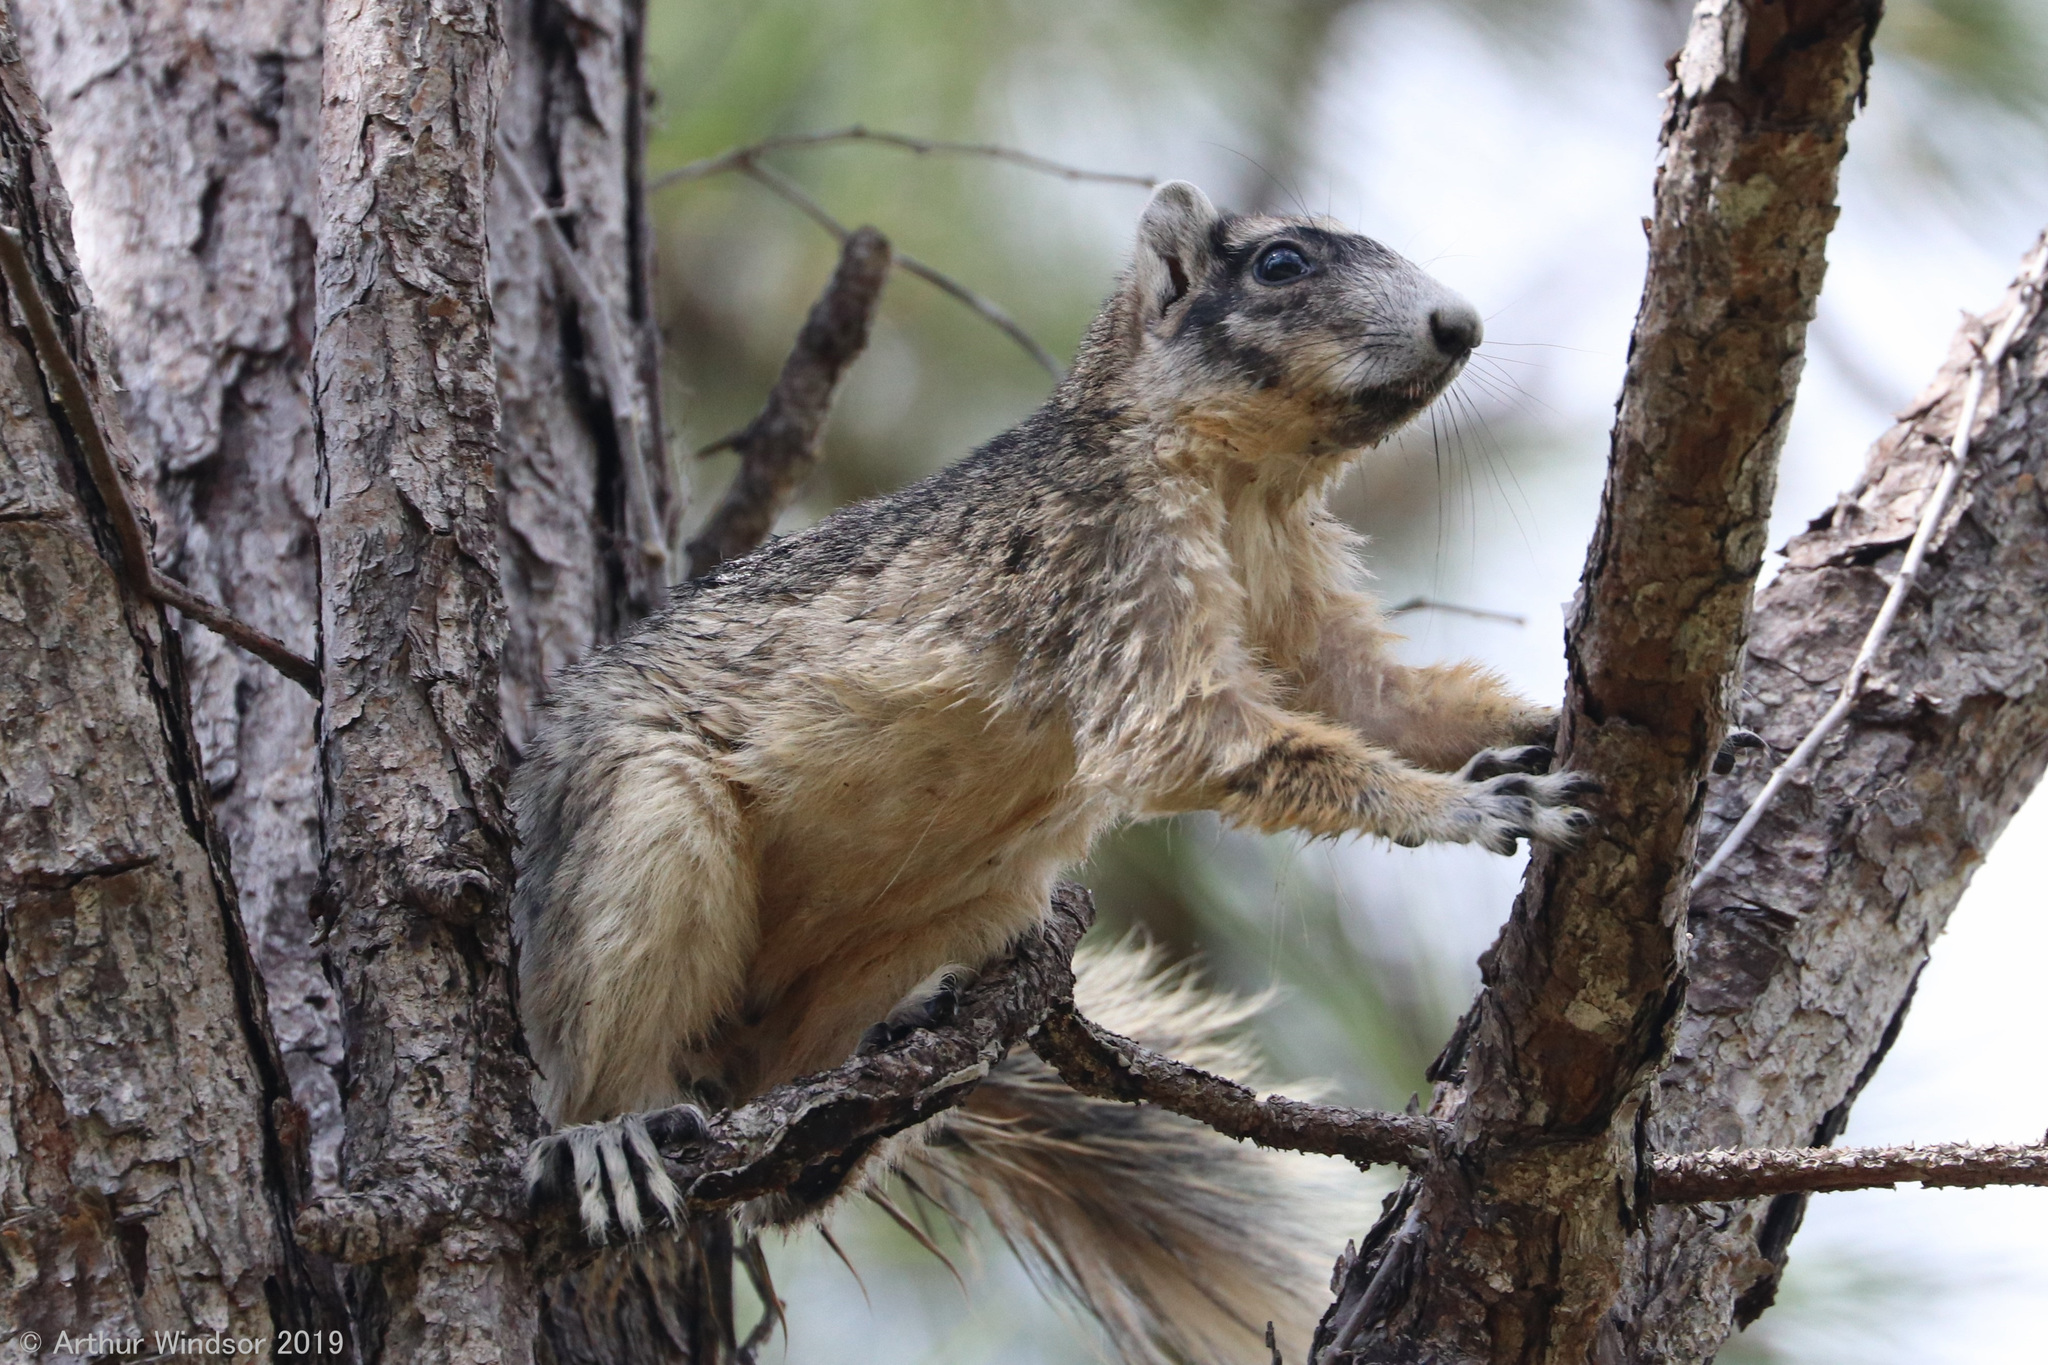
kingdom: Animalia
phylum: Chordata
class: Mammalia
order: Rodentia
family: Sciuridae
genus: Sciurus
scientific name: Sciurus niger
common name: Fox squirrel
